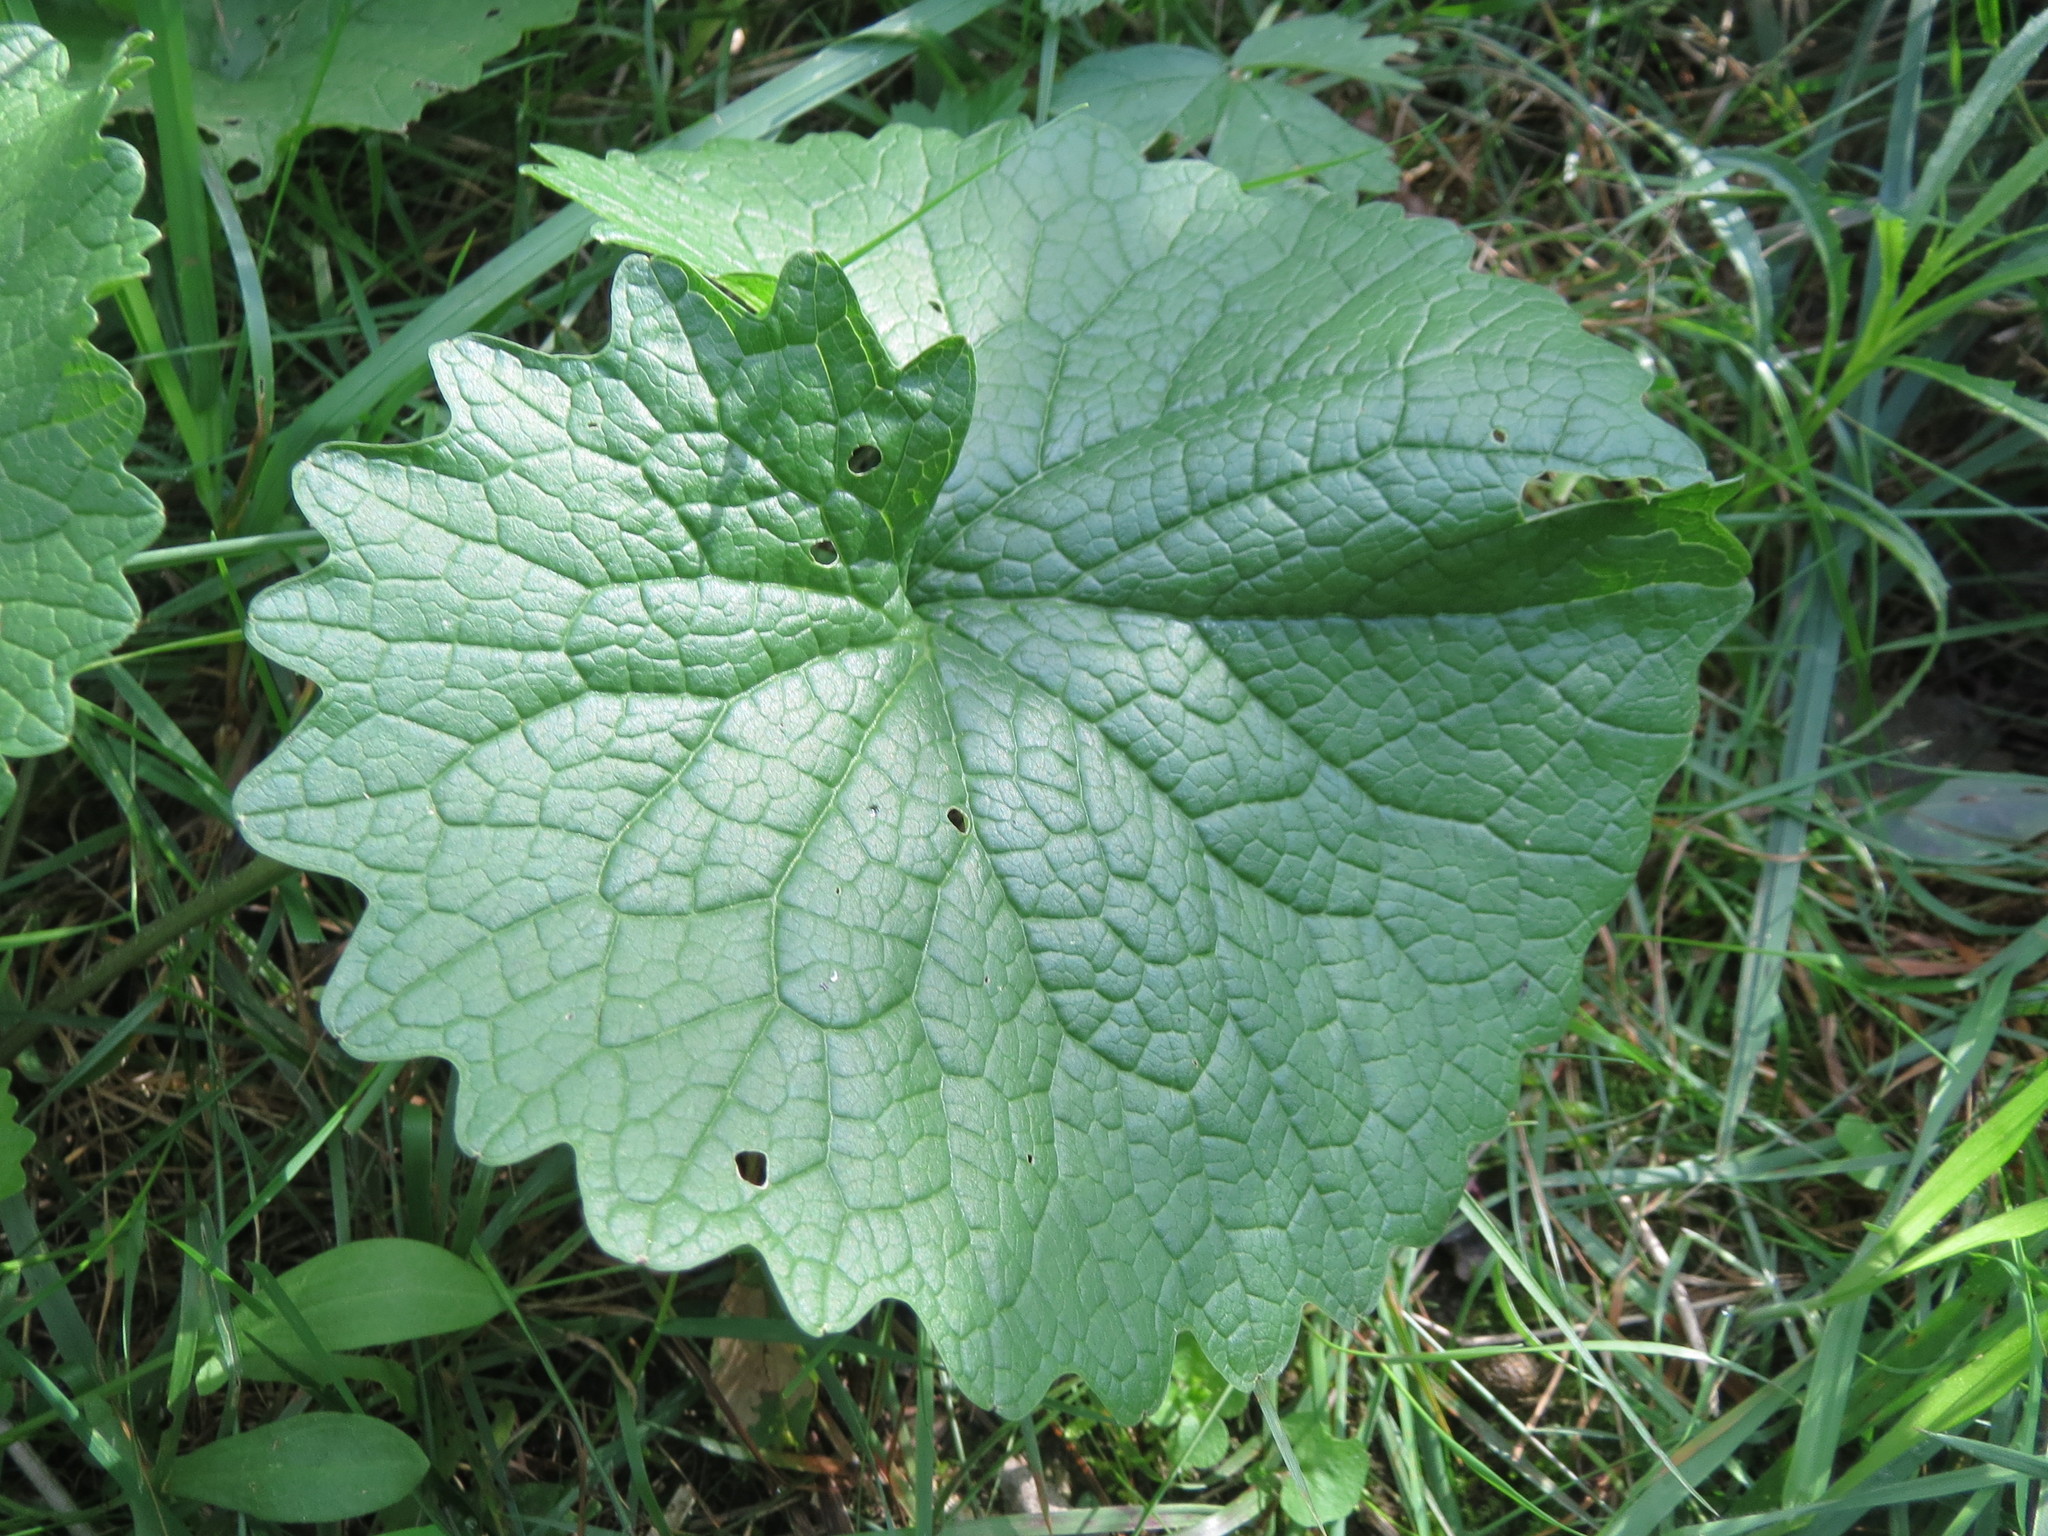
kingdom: Plantae
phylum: Tracheophyta
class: Magnoliopsida
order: Brassicales
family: Brassicaceae
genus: Alliaria
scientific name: Alliaria petiolata
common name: Garlic mustard
